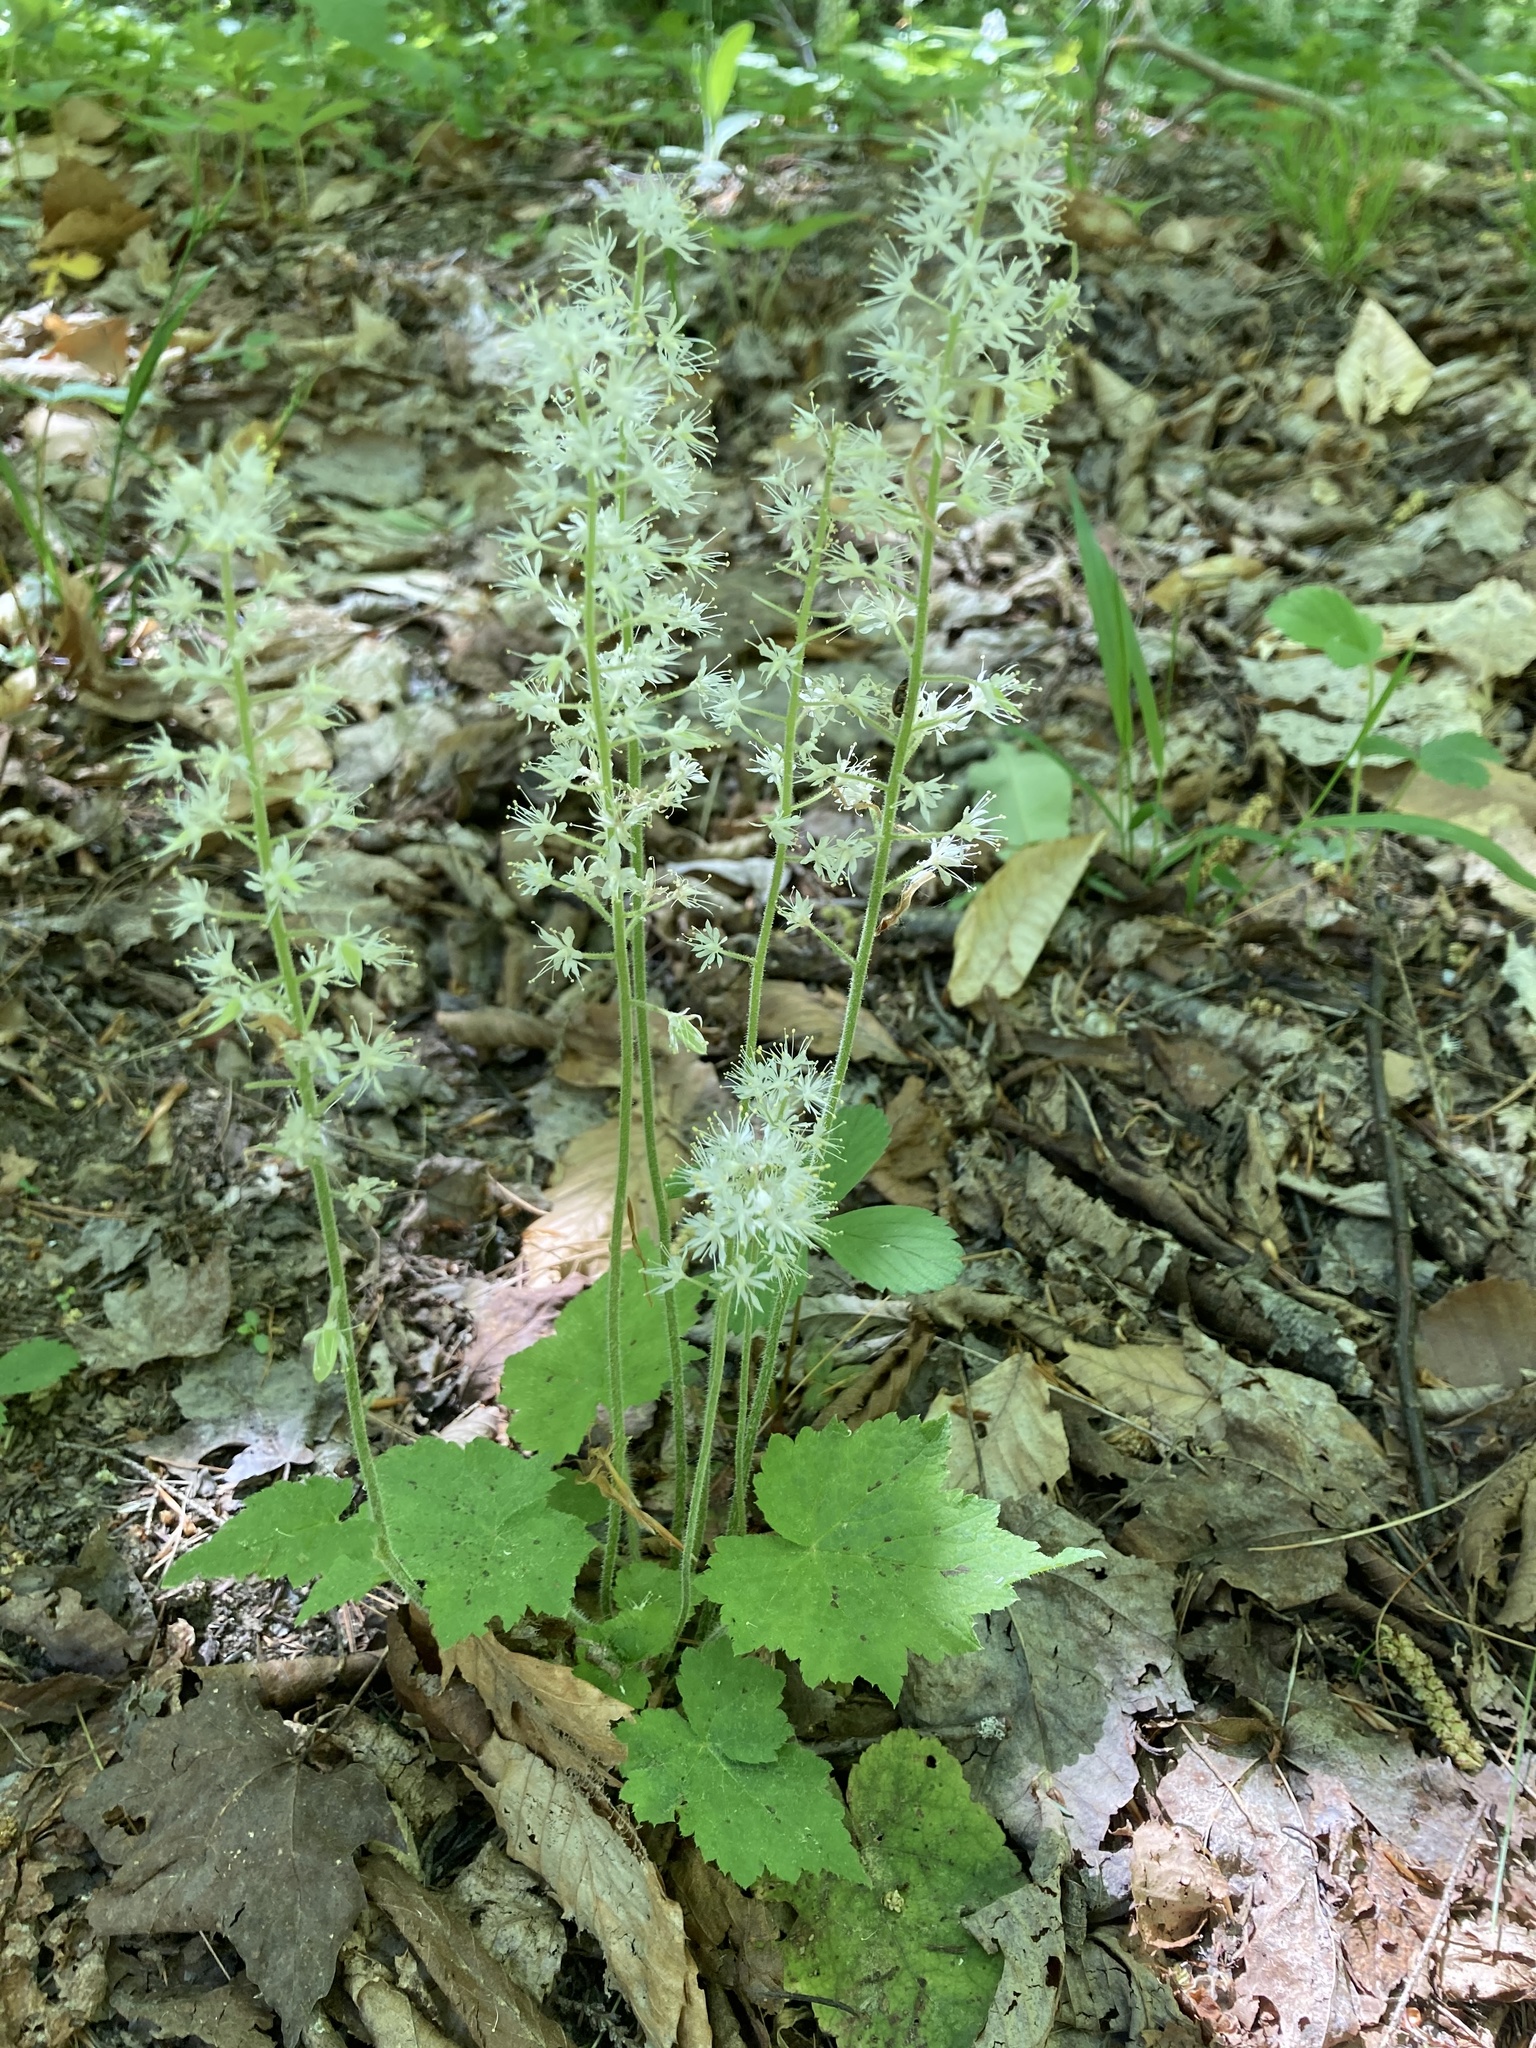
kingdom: Plantae
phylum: Tracheophyta
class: Magnoliopsida
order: Saxifragales
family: Saxifragaceae
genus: Tiarella
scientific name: Tiarella stolonifera
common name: Stoloniferous foamflower
